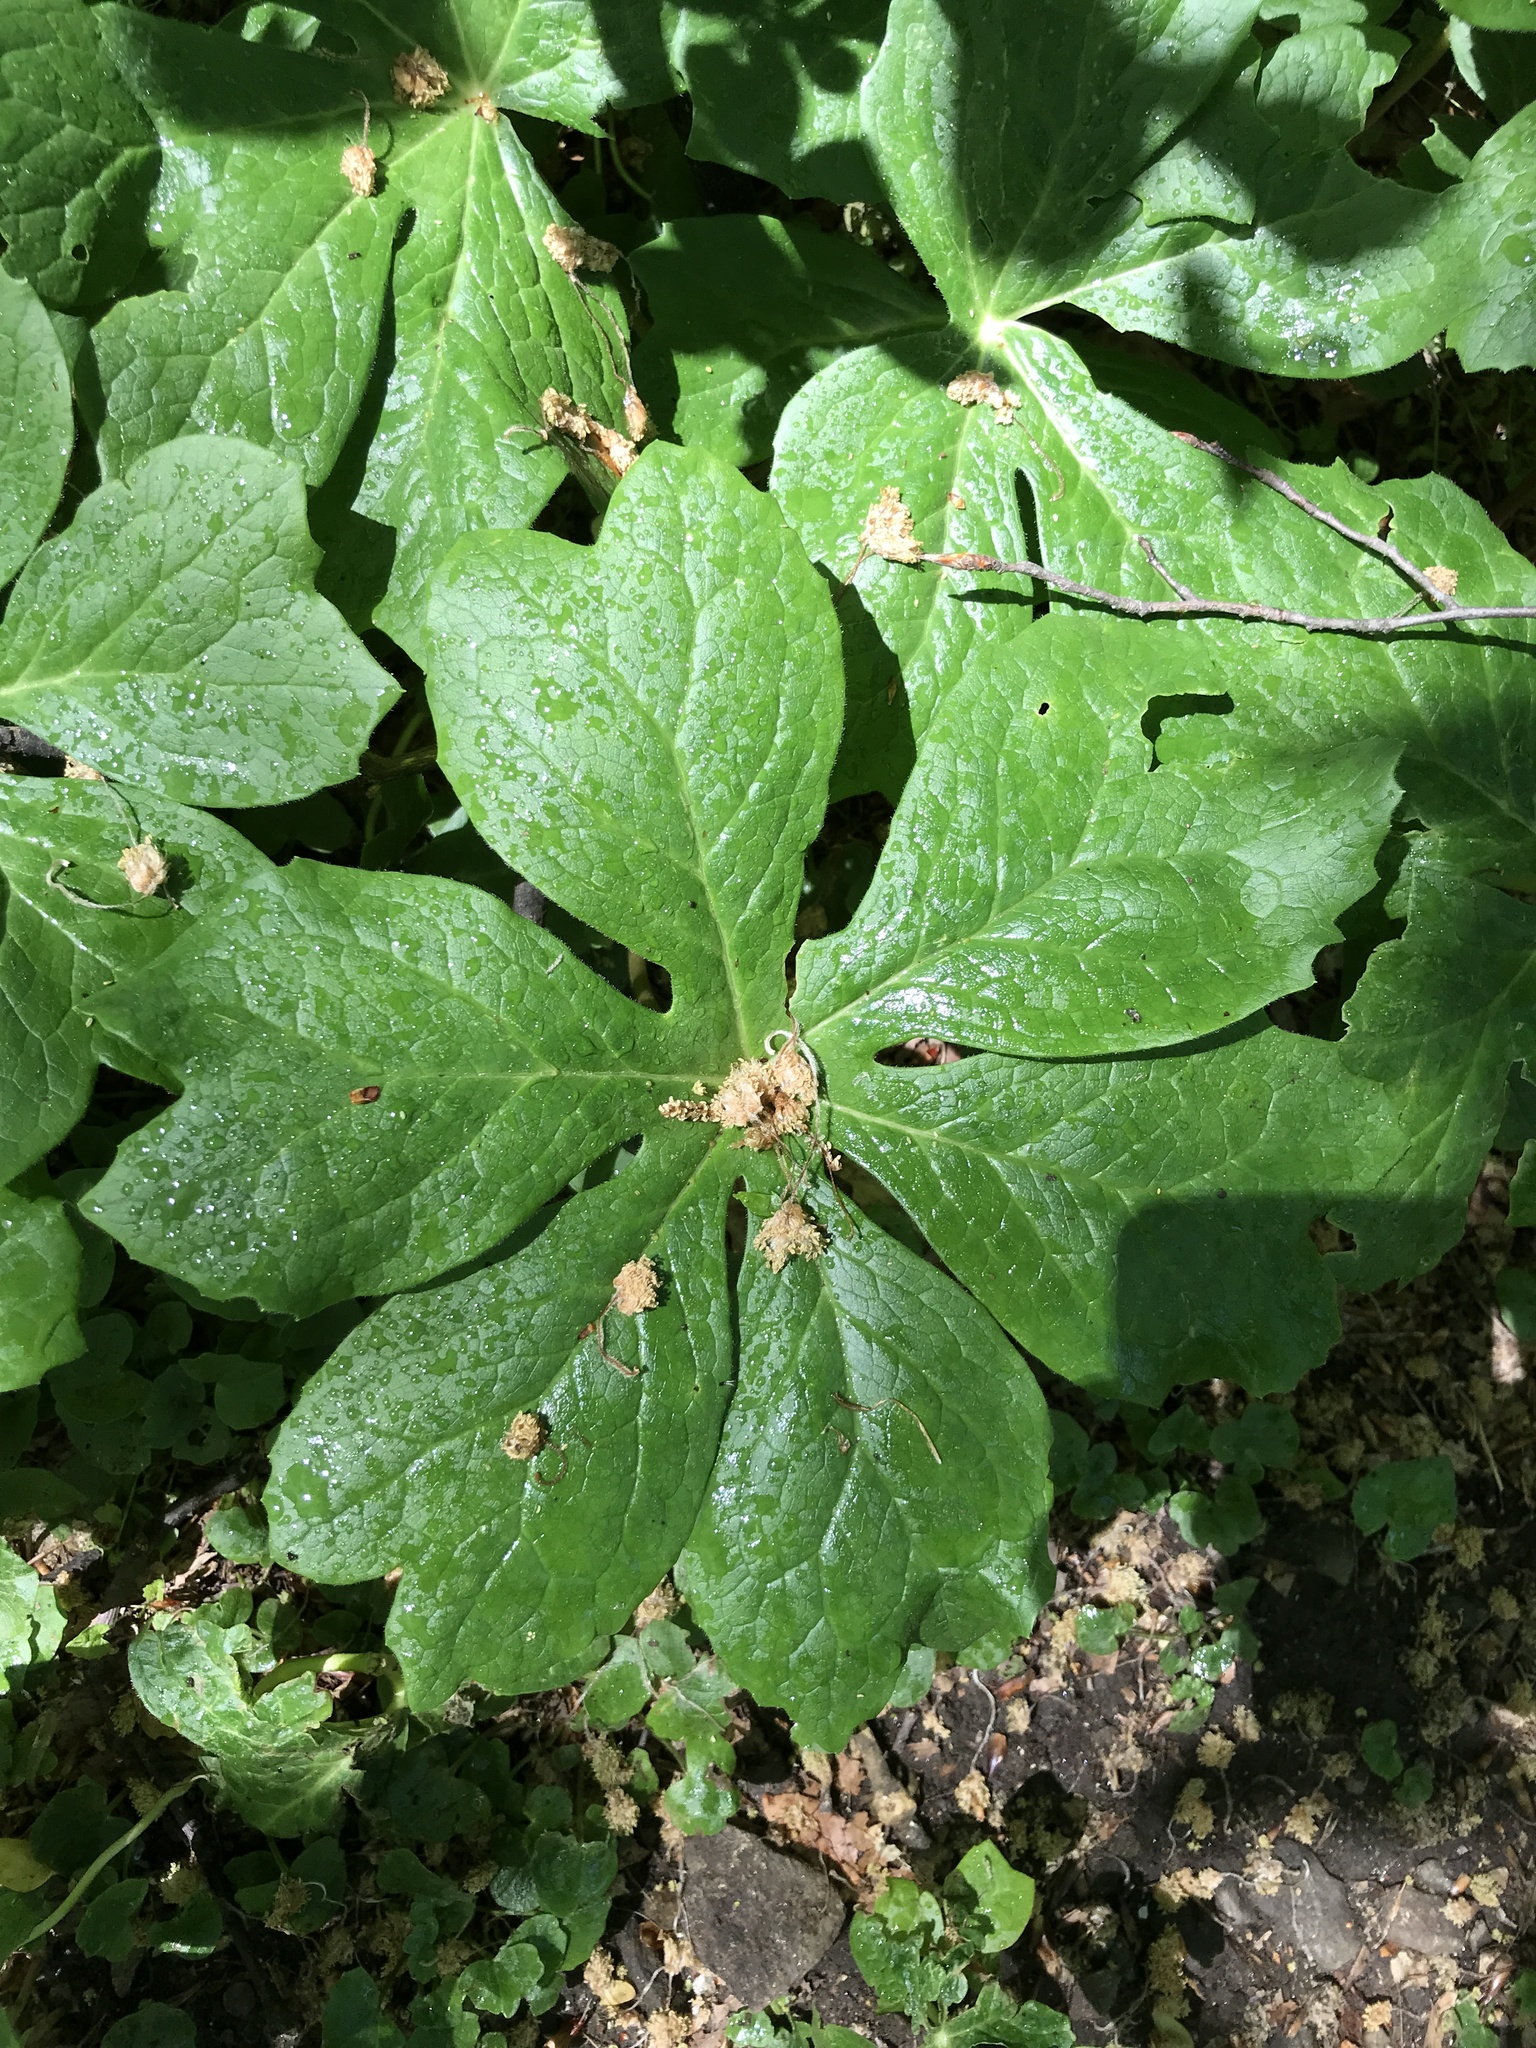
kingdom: Plantae
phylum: Tracheophyta
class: Magnoliopsida
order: Ranunculales
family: Berberidaceae
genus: Podophyllum
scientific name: Podophyllum peltatum
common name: Wild mandrake
